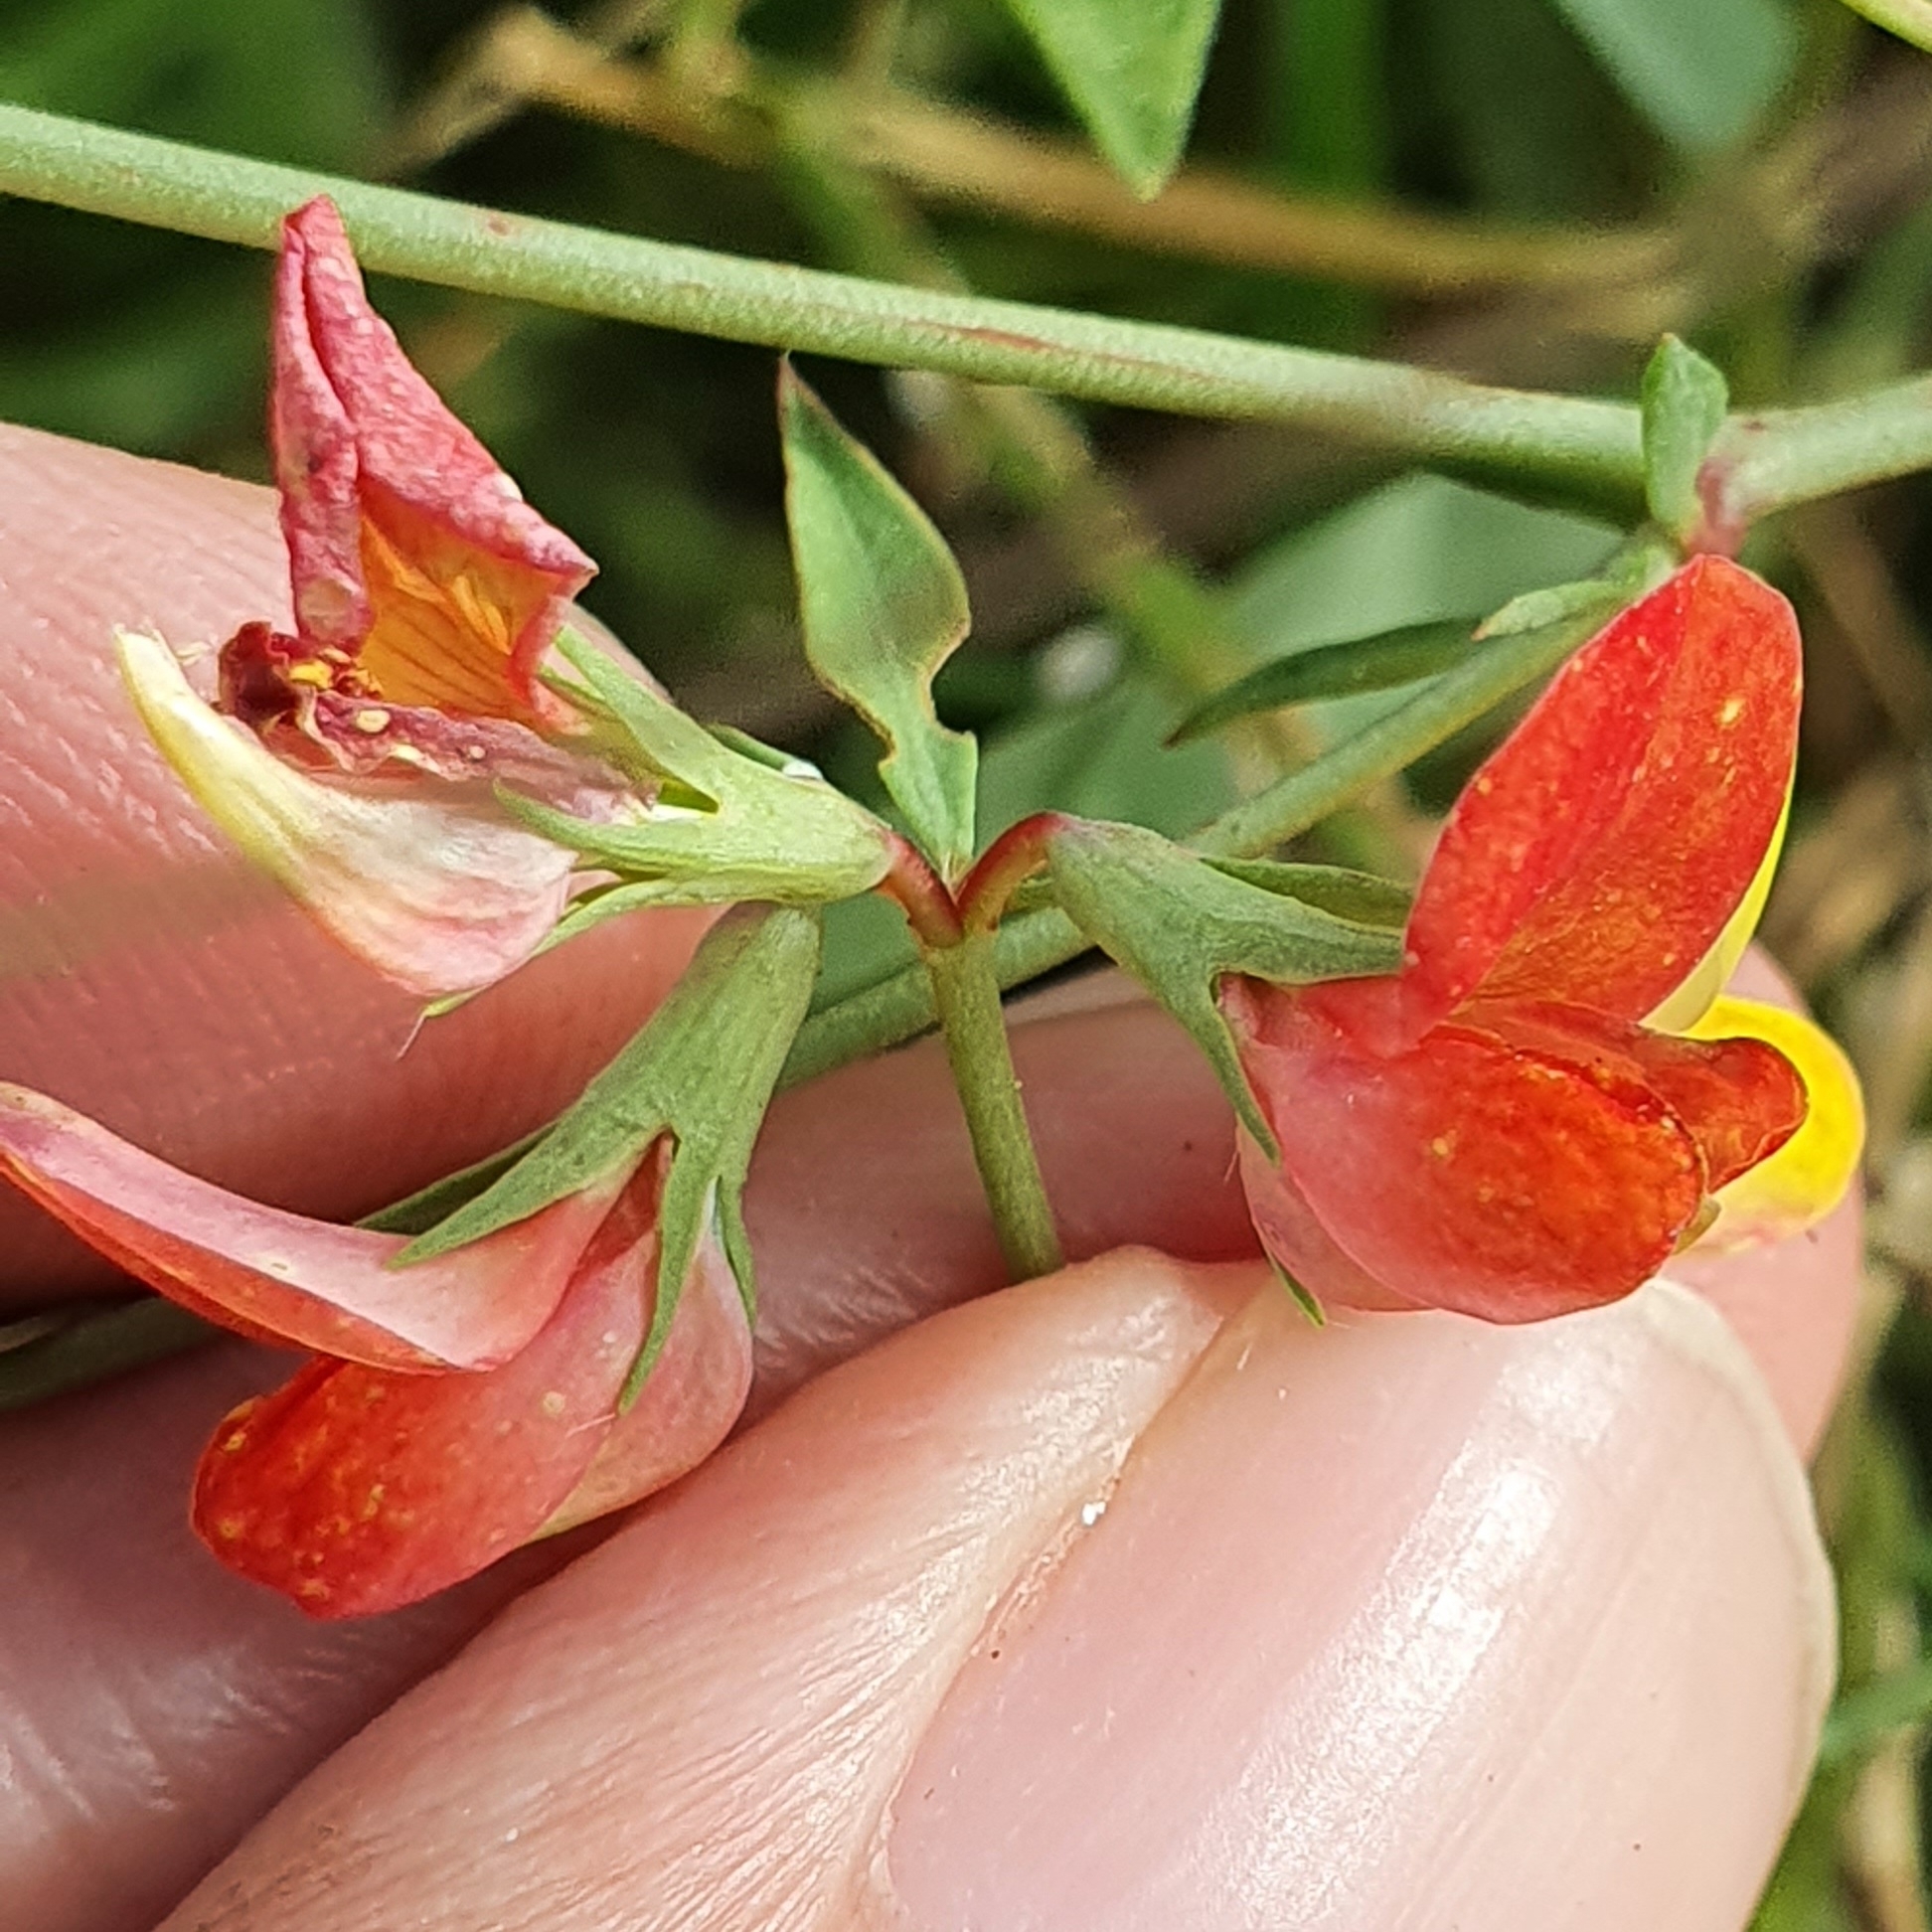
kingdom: Plantae
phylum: Tracheophyta
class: Magnoliopsida
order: Fabales
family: Fabaceae
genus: Lotus
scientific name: Lotus tenuis
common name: Narrow-leaved bird's-foot-trefoil
